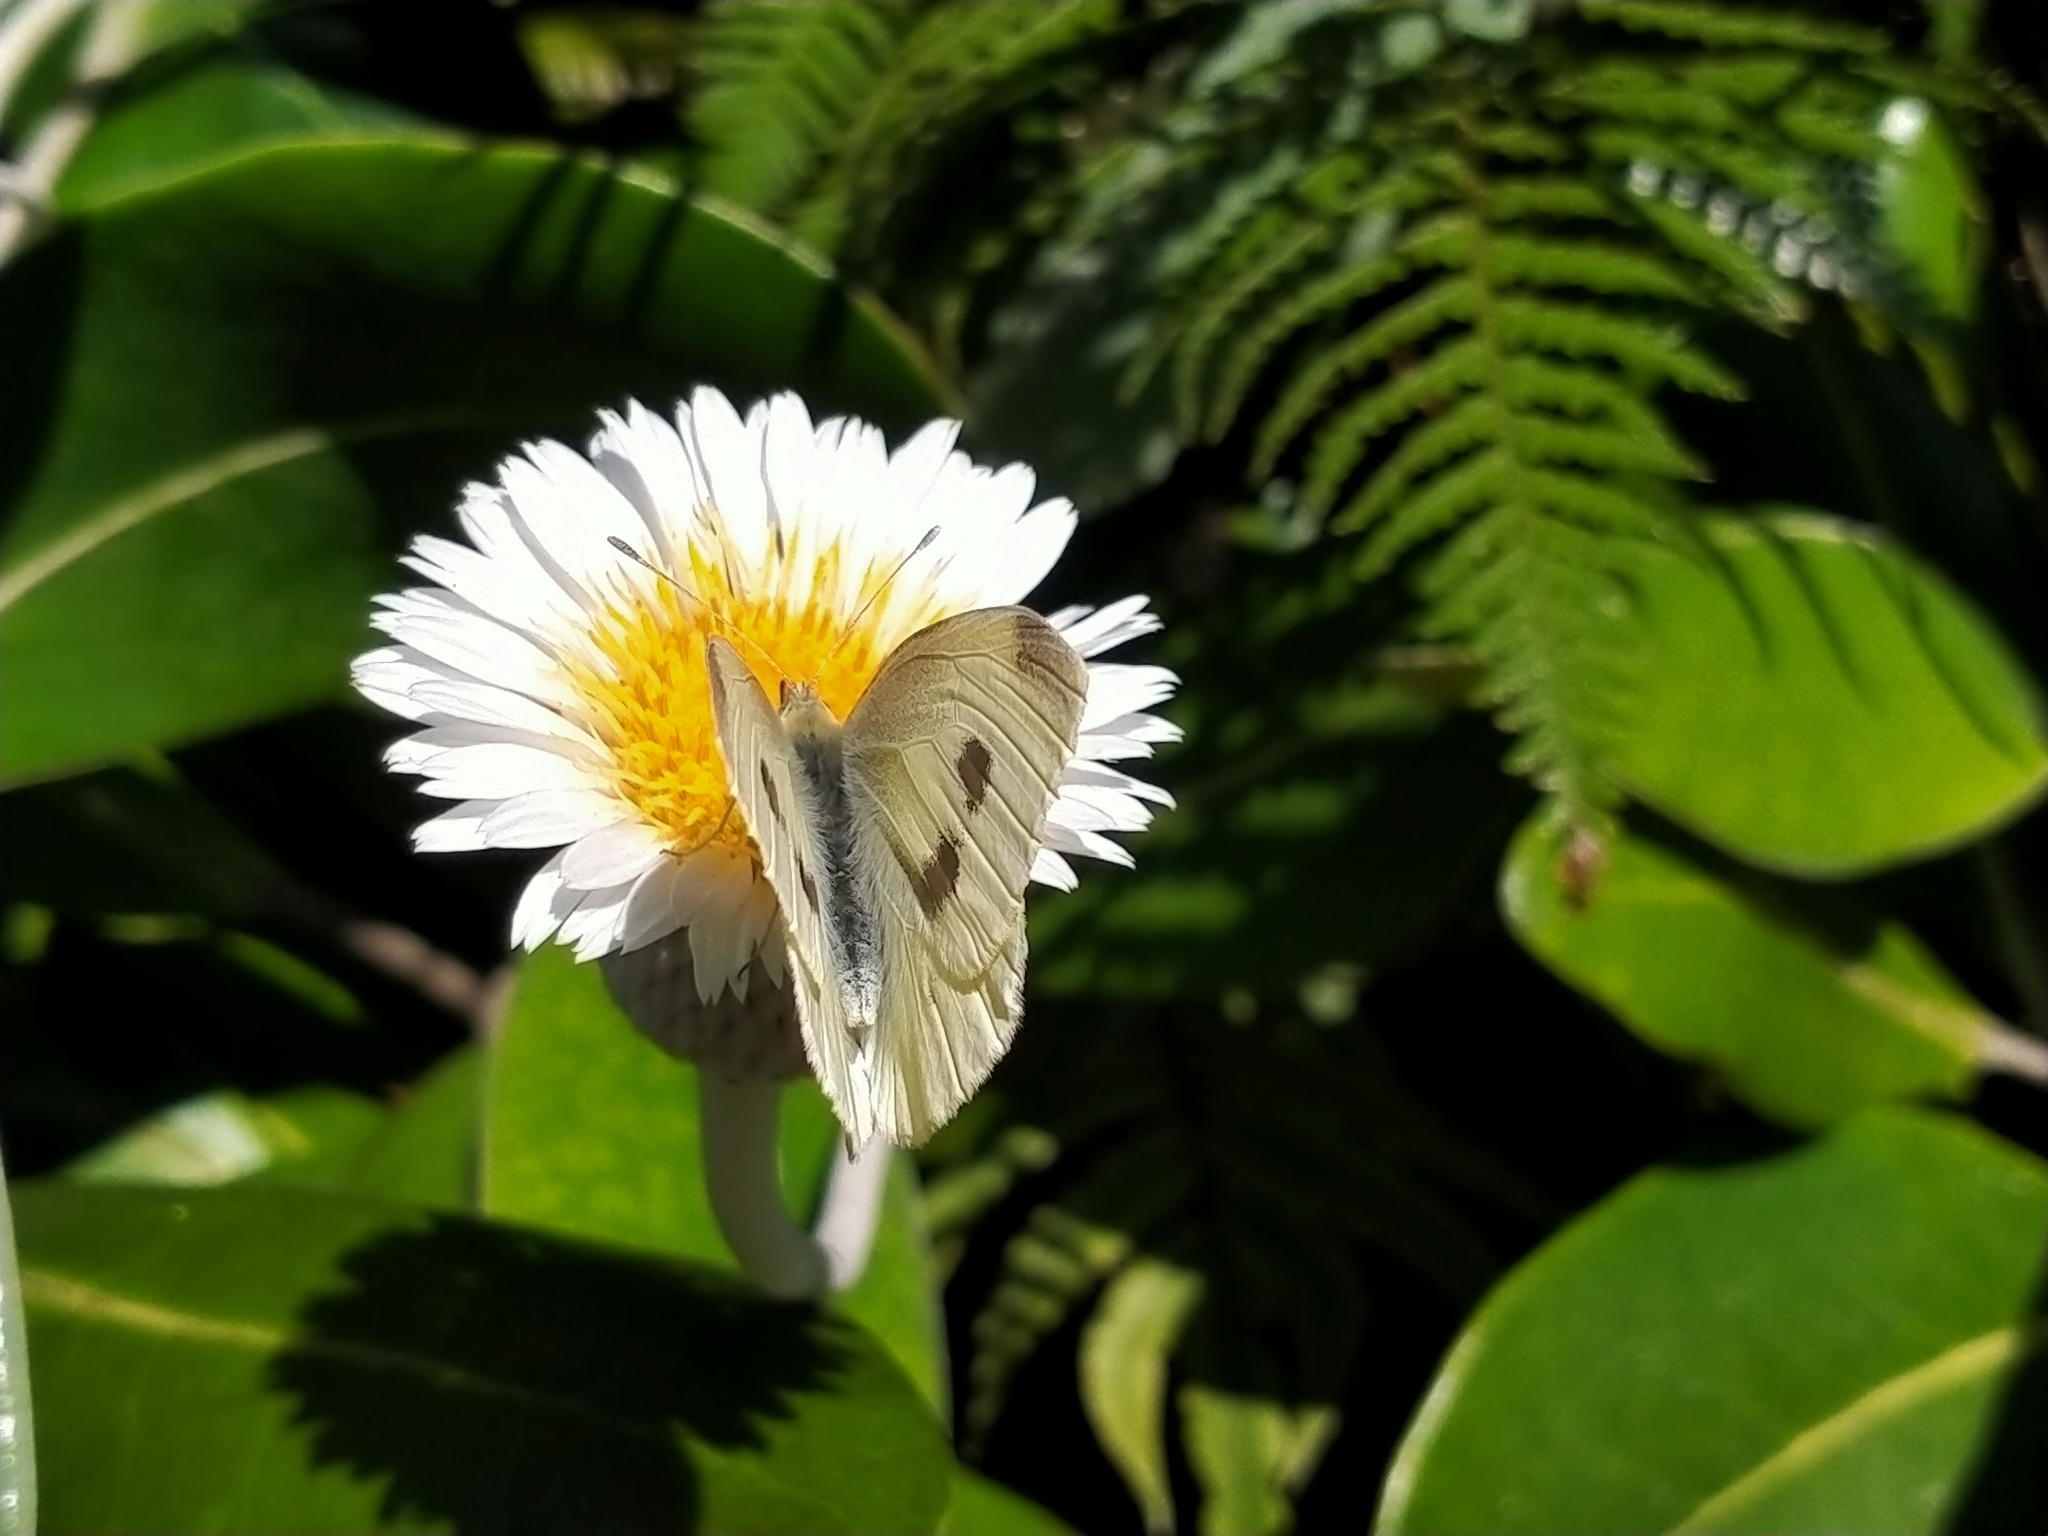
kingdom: Animalia
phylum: Arthropoda
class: Insecta
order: Lepidoptera
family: Pieridae
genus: Pieris
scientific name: Pieris rapae
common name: Small white
